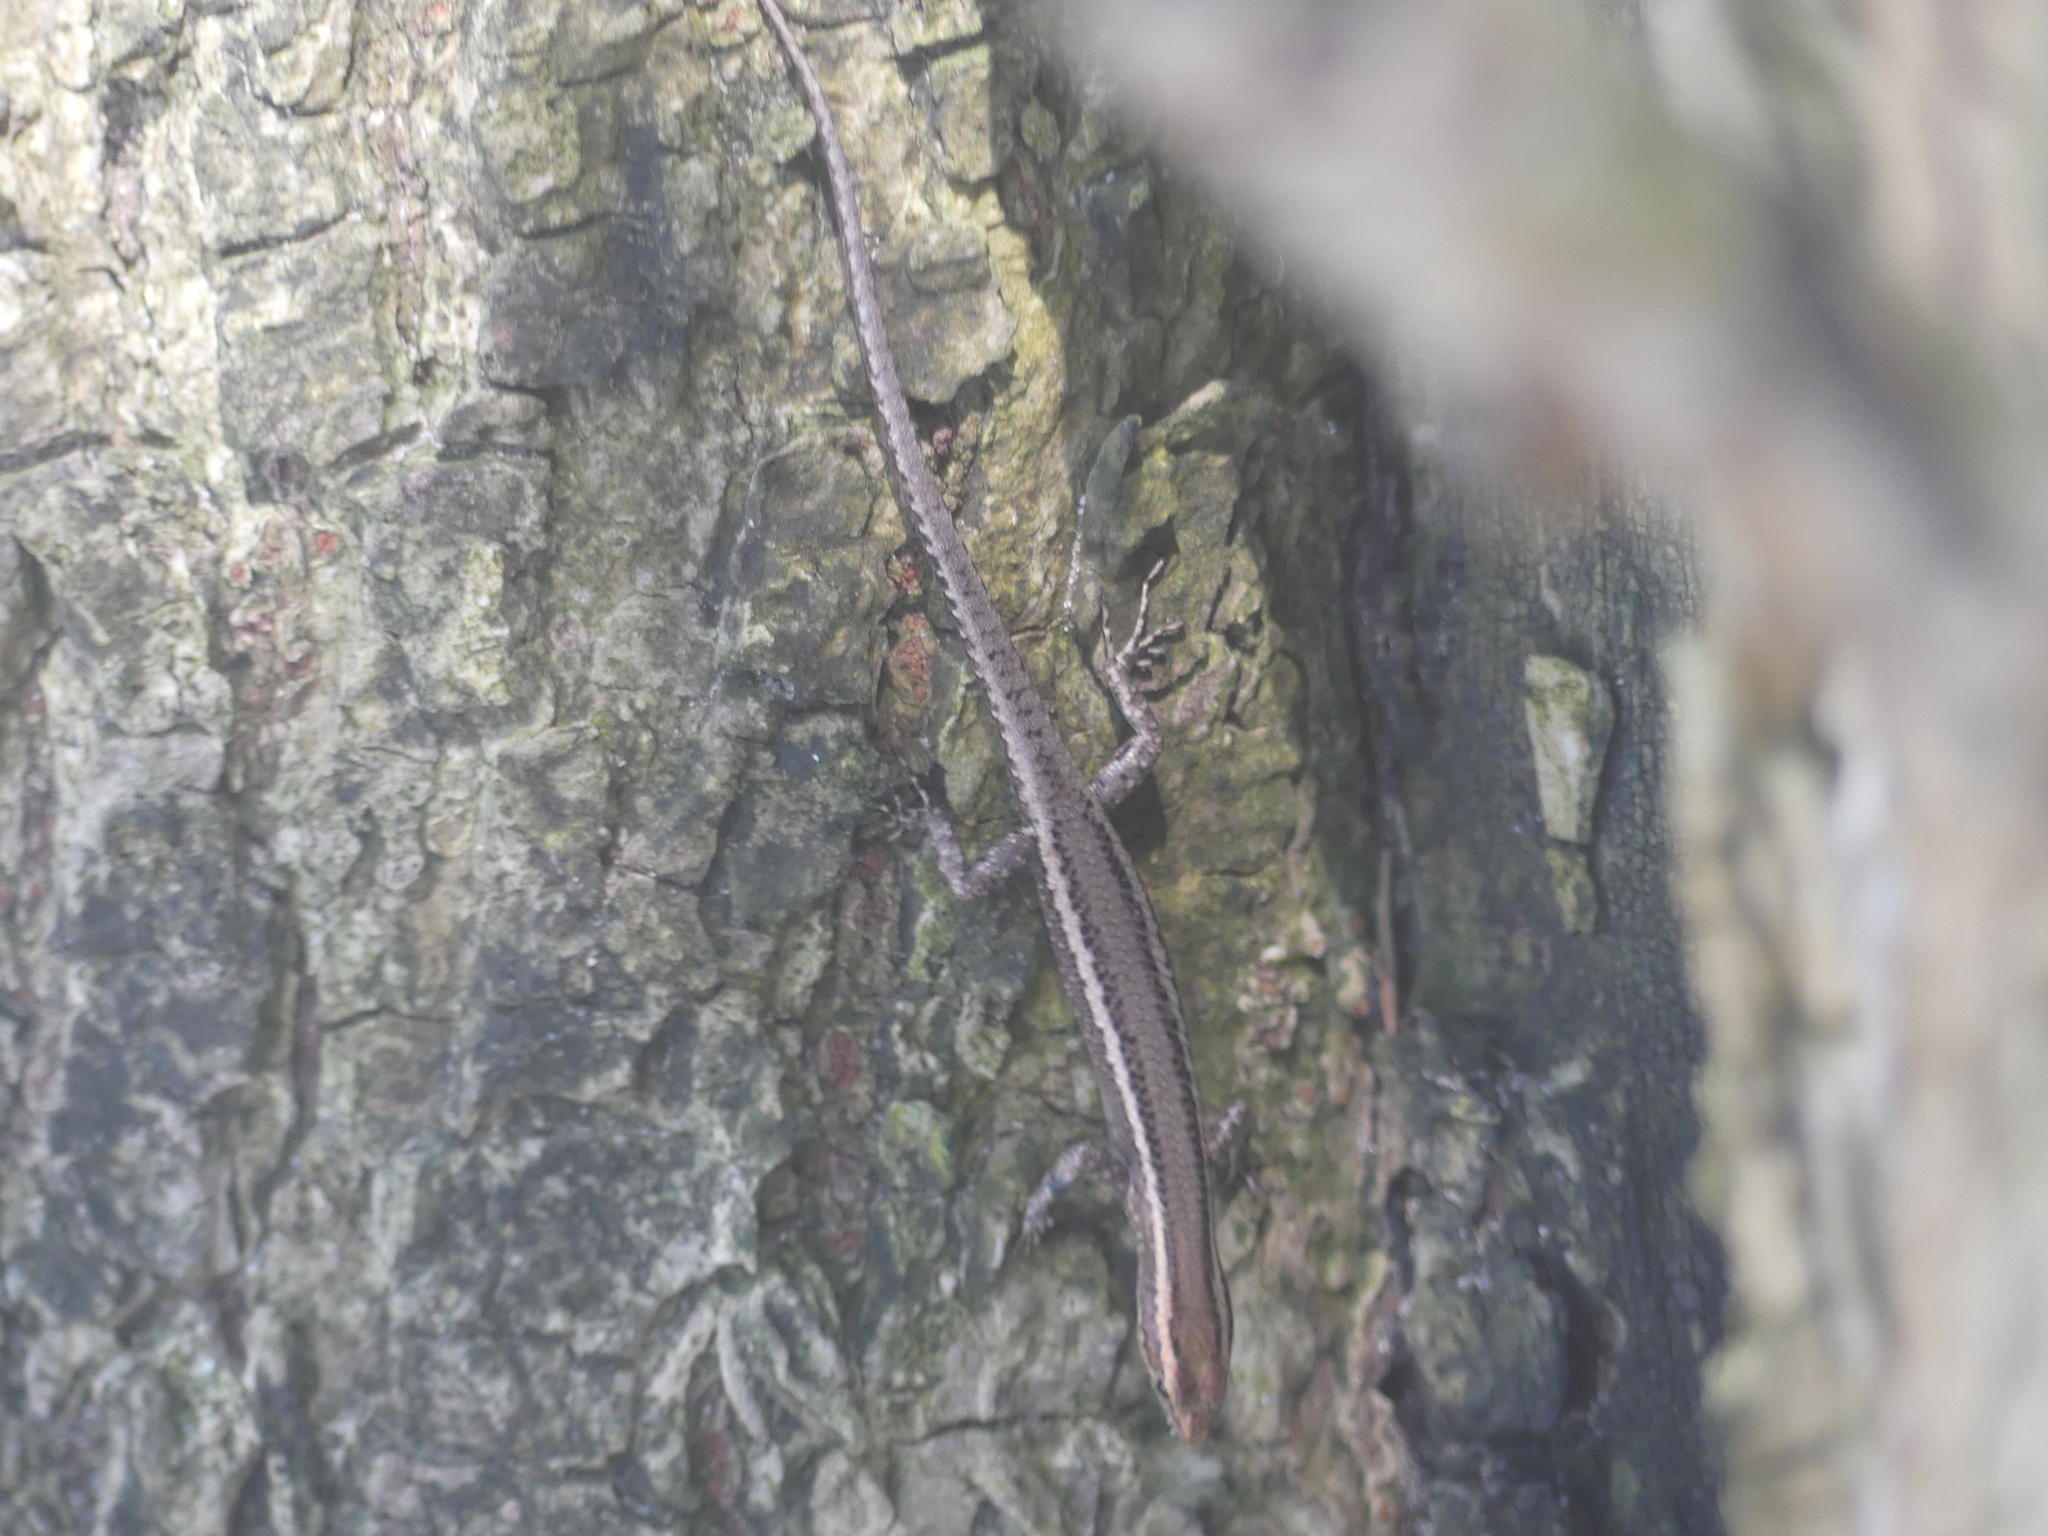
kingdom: Animalia
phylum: Chordata
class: Squamata
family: Scincidae
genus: Cryptoblepharus
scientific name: Cryptoblepharus virgatus
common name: Cream-striped shinning-skink
